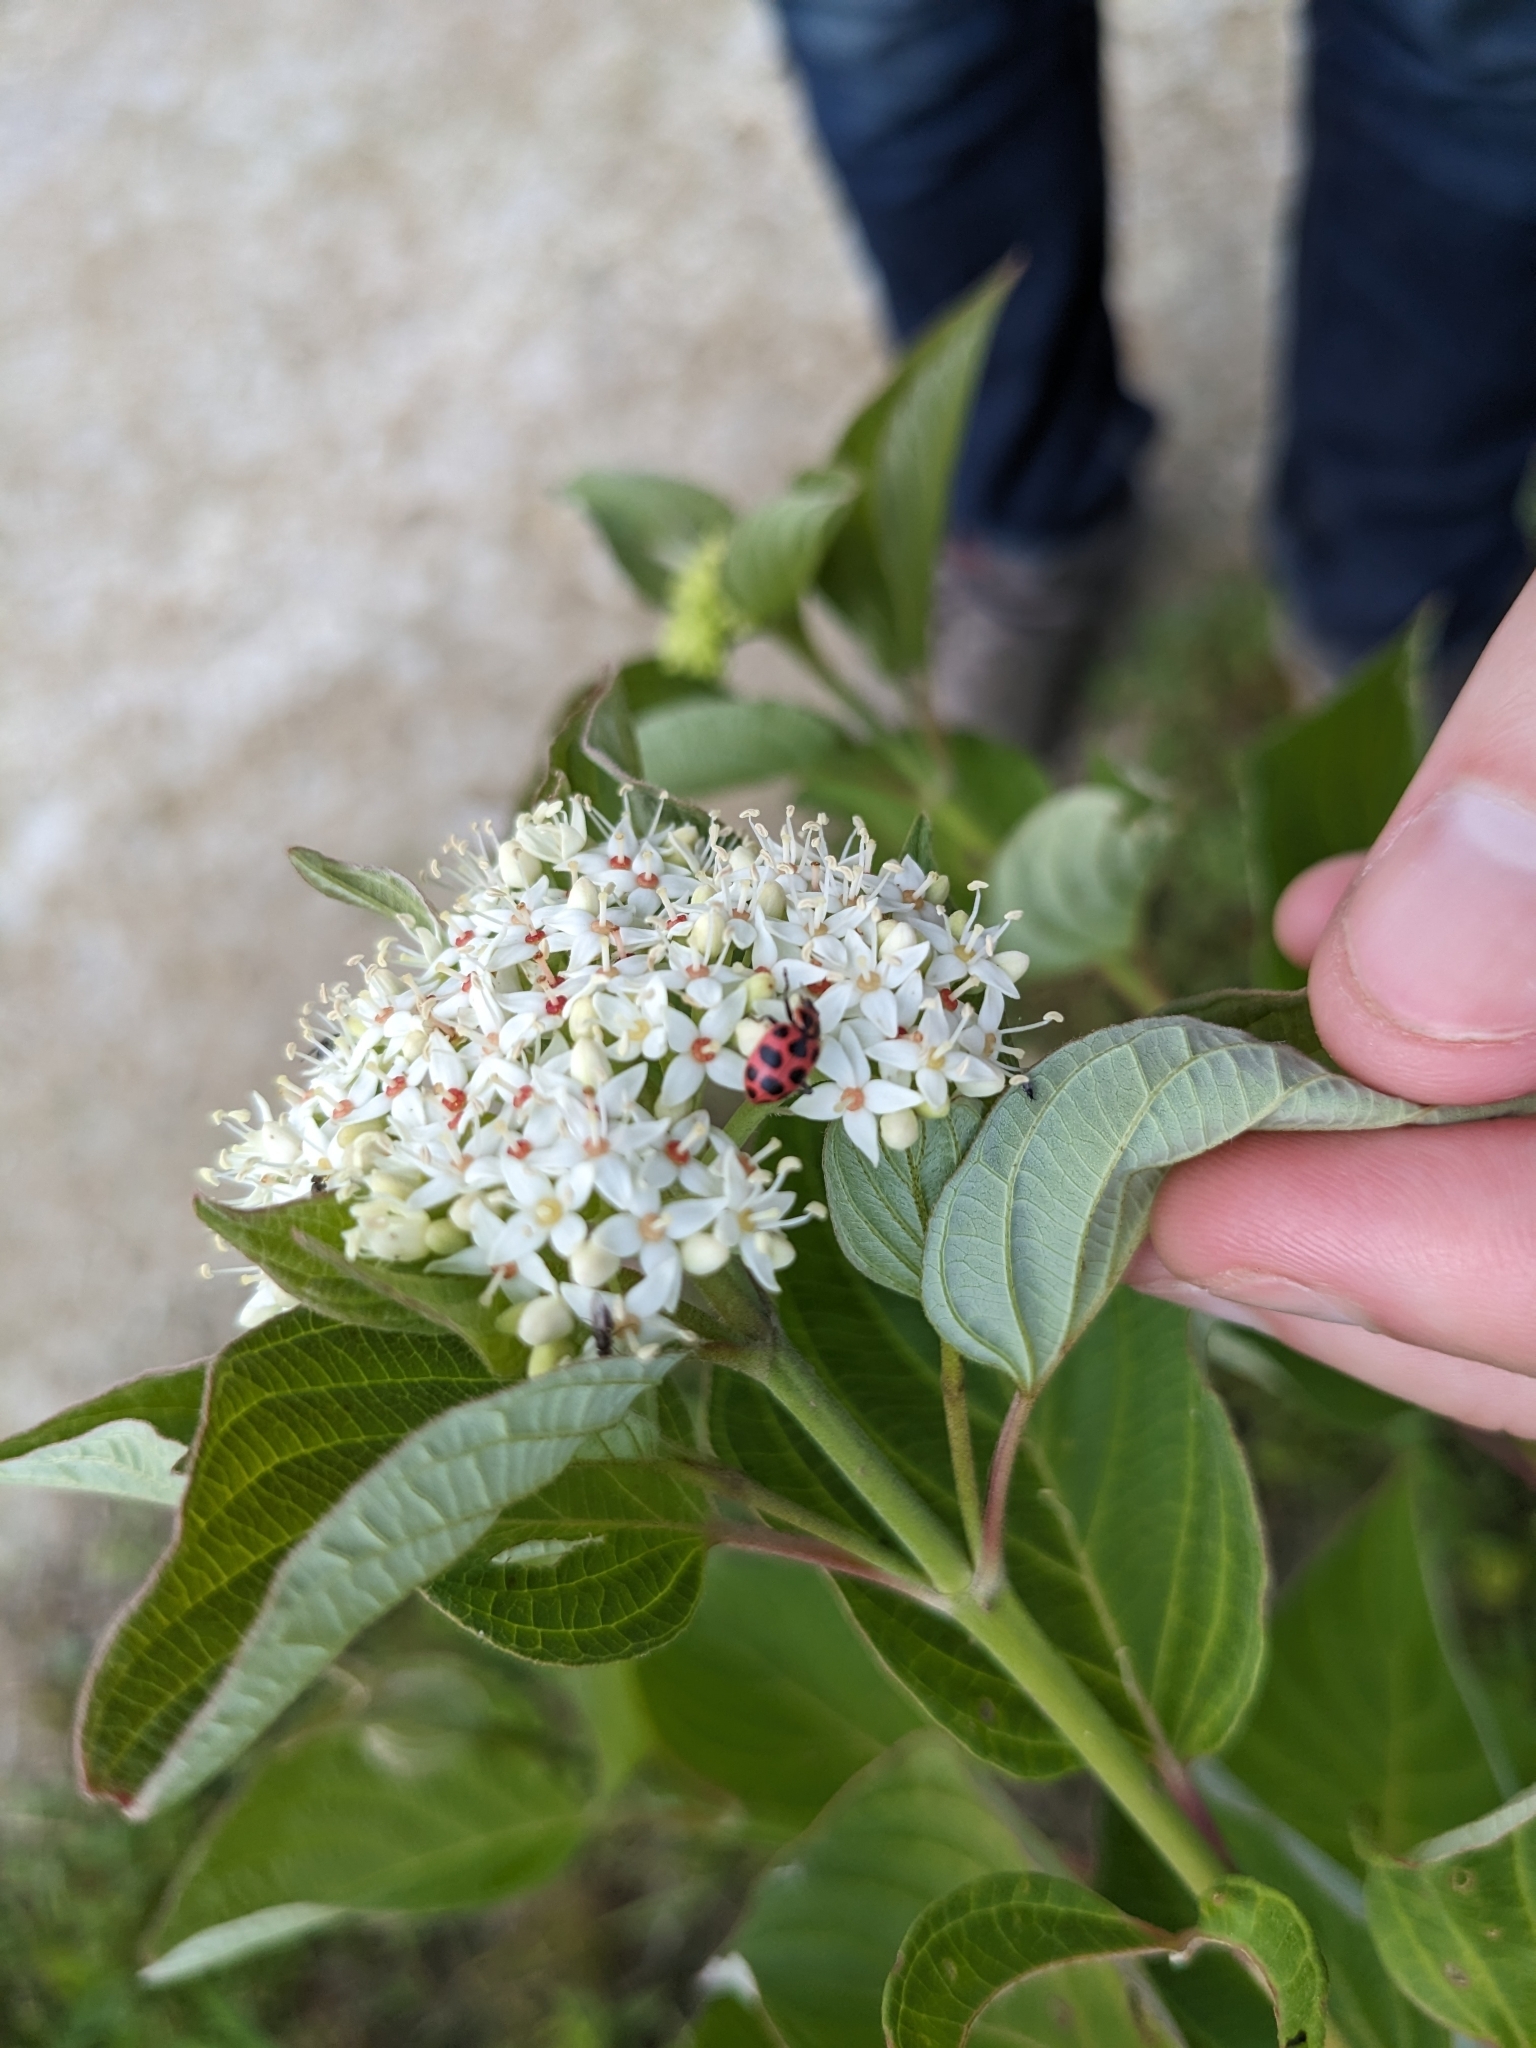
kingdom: Animalia
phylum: Arthropoda
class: Insecta
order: Coleoptera
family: Coccinellidae
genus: Coleomegilla
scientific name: Coleomegilla maculata
